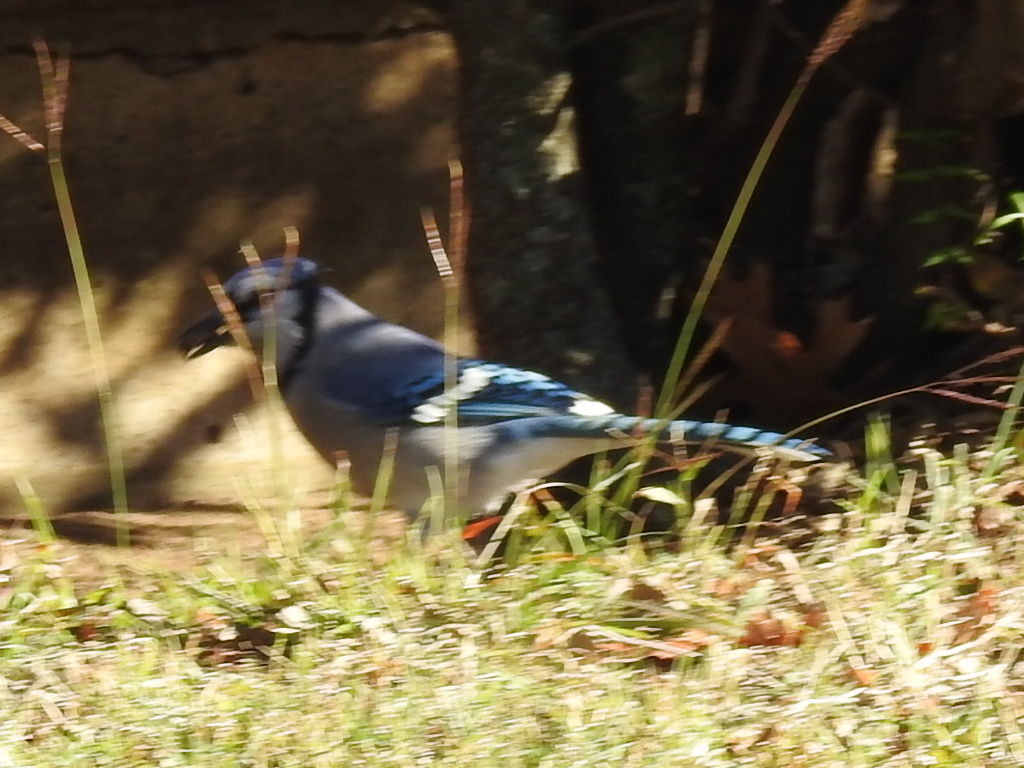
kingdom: Animalia
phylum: Chordata
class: Aves
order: Passeriformes
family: Corvidae
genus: Cyanocitta
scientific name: Cyanocitta cristata
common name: Blue jay
